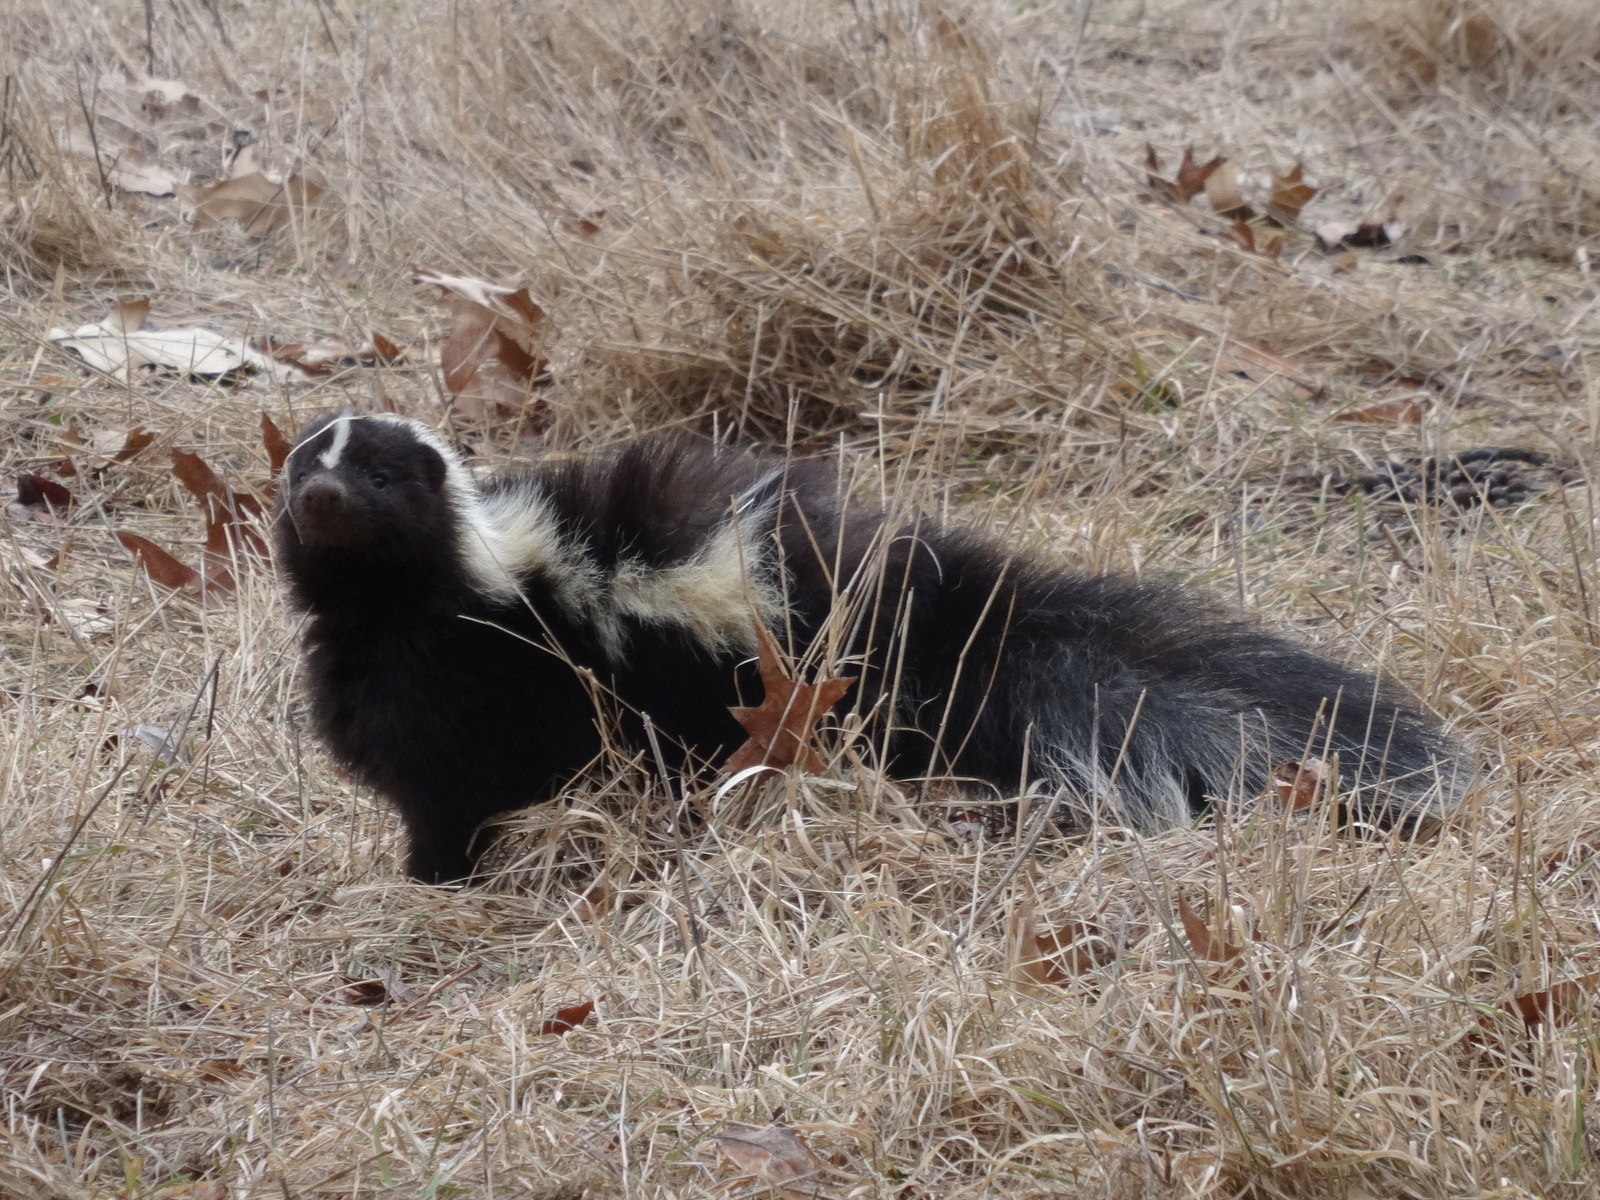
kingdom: Animalia
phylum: Chordata
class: Mammalia
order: Carnivora
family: Mephitidae
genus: Mephitis
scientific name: Mephitis mephitis
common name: Striped skunk
